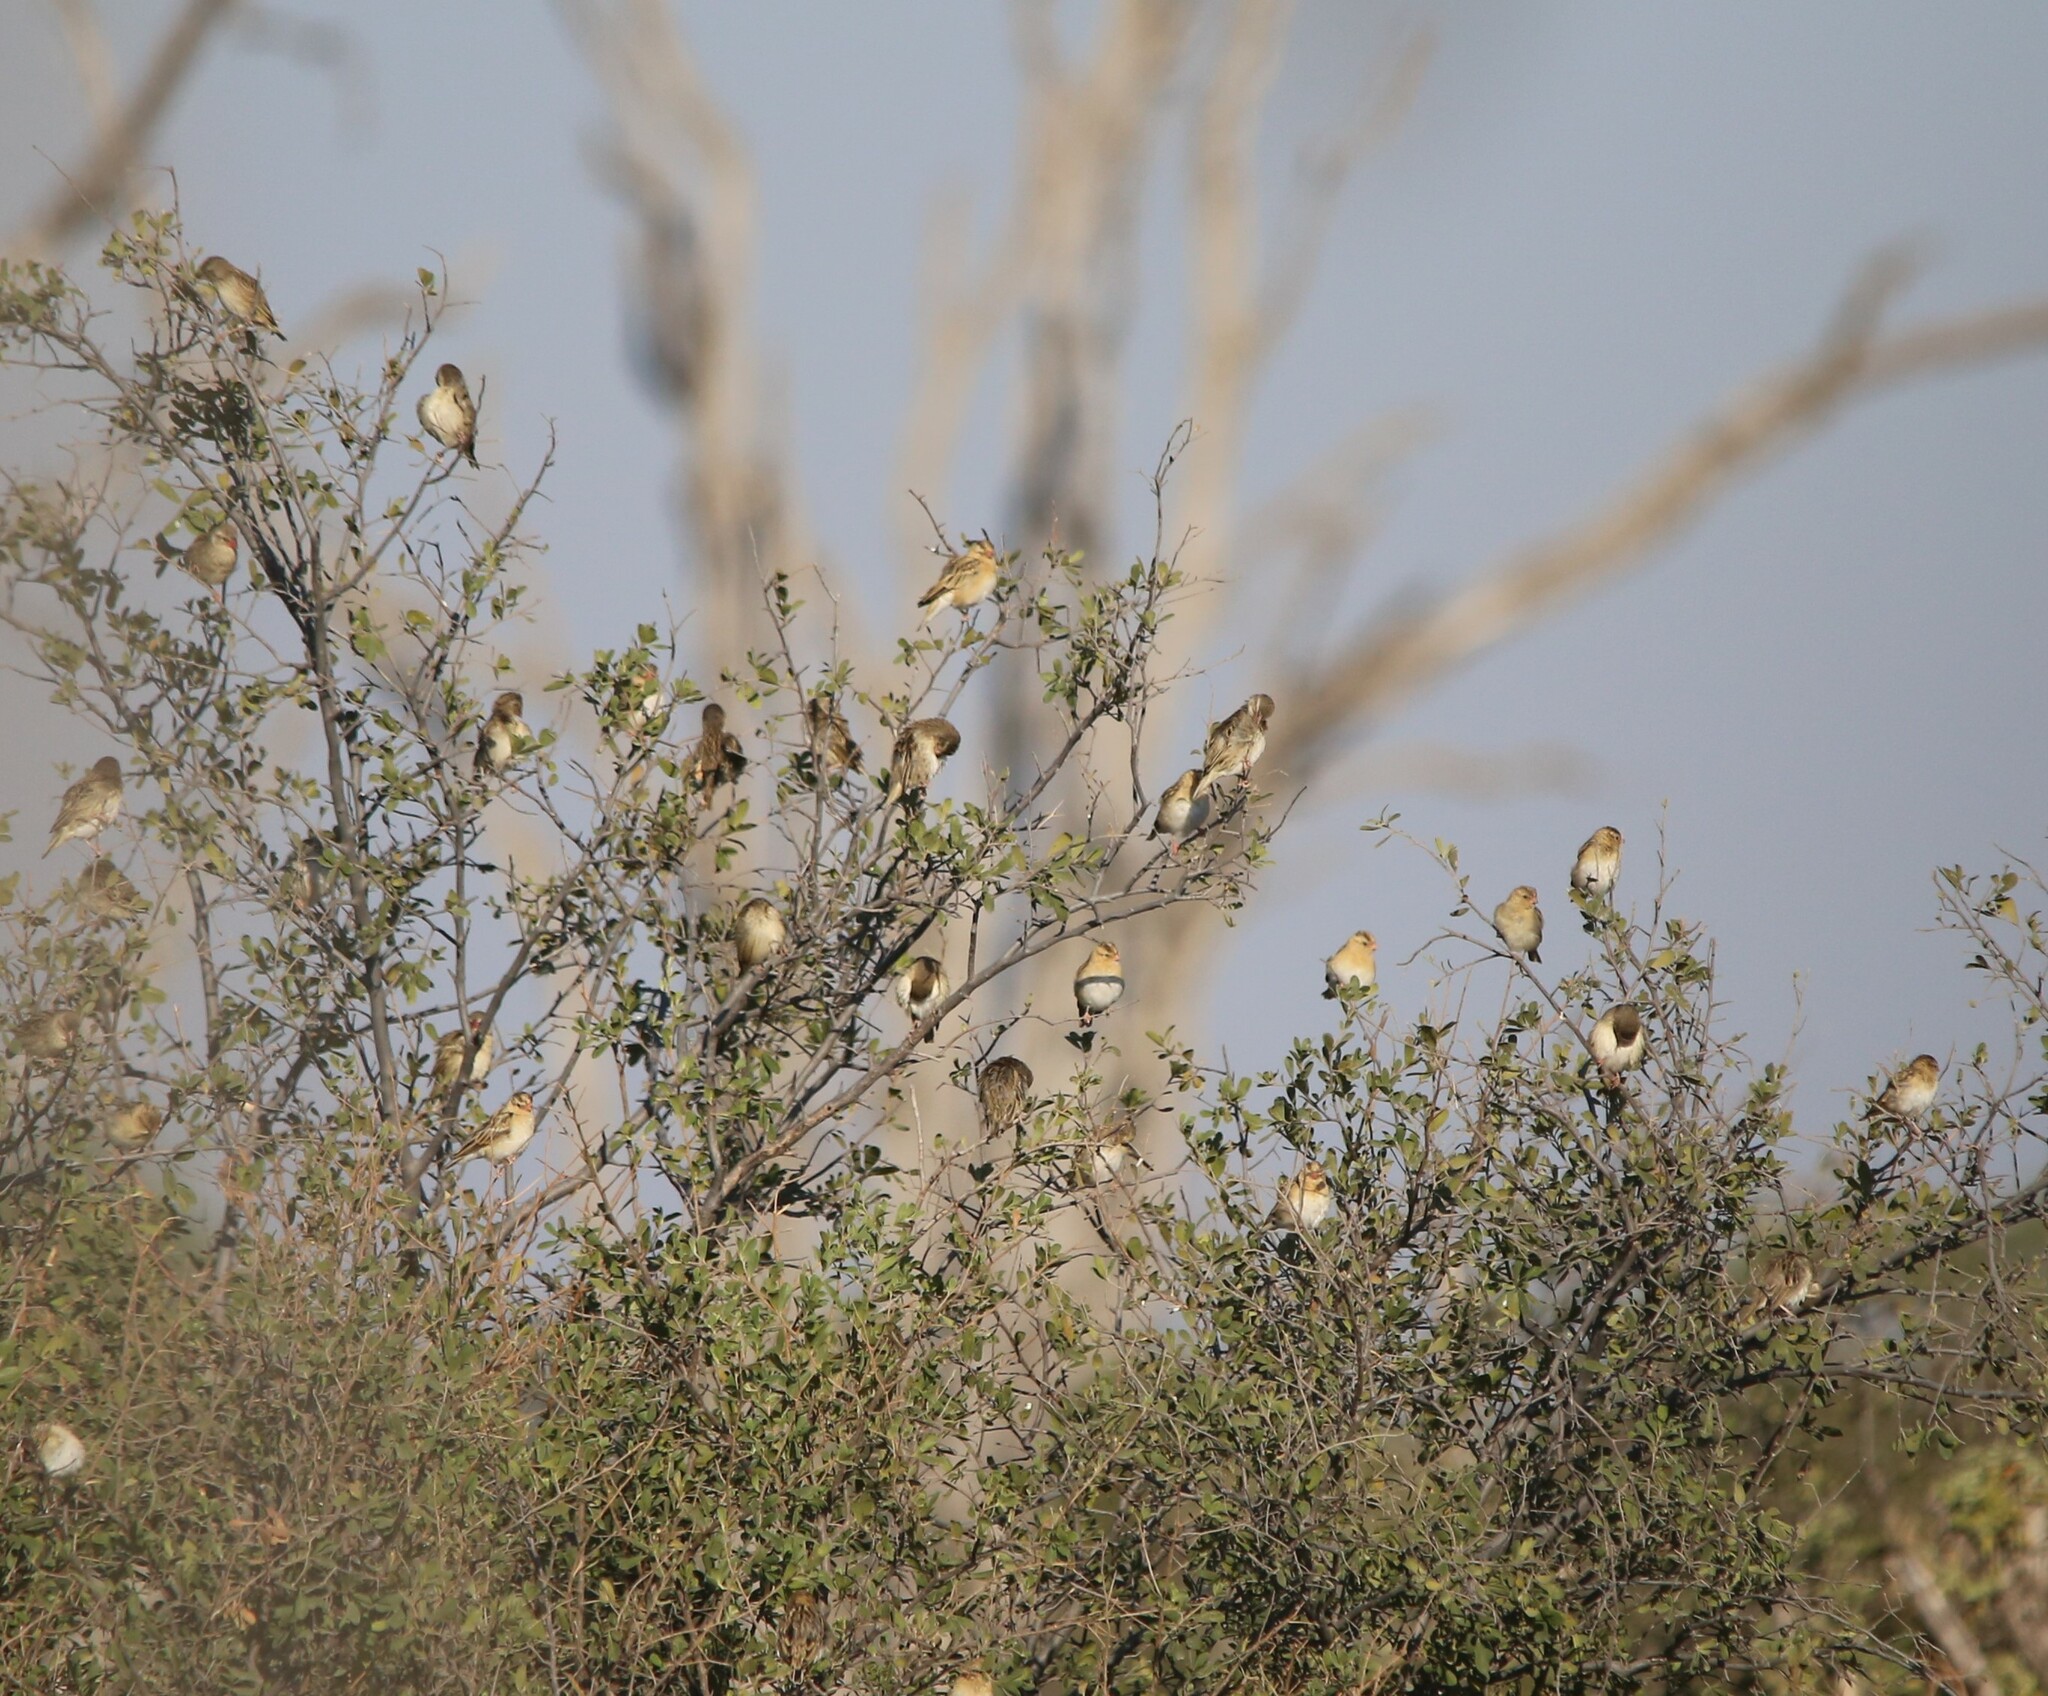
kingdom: Animalia
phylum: Chordata
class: Aves
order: Passeriformes
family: Viduidae
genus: Vidua
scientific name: Vidua regia
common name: Shaft-tailed whydah
